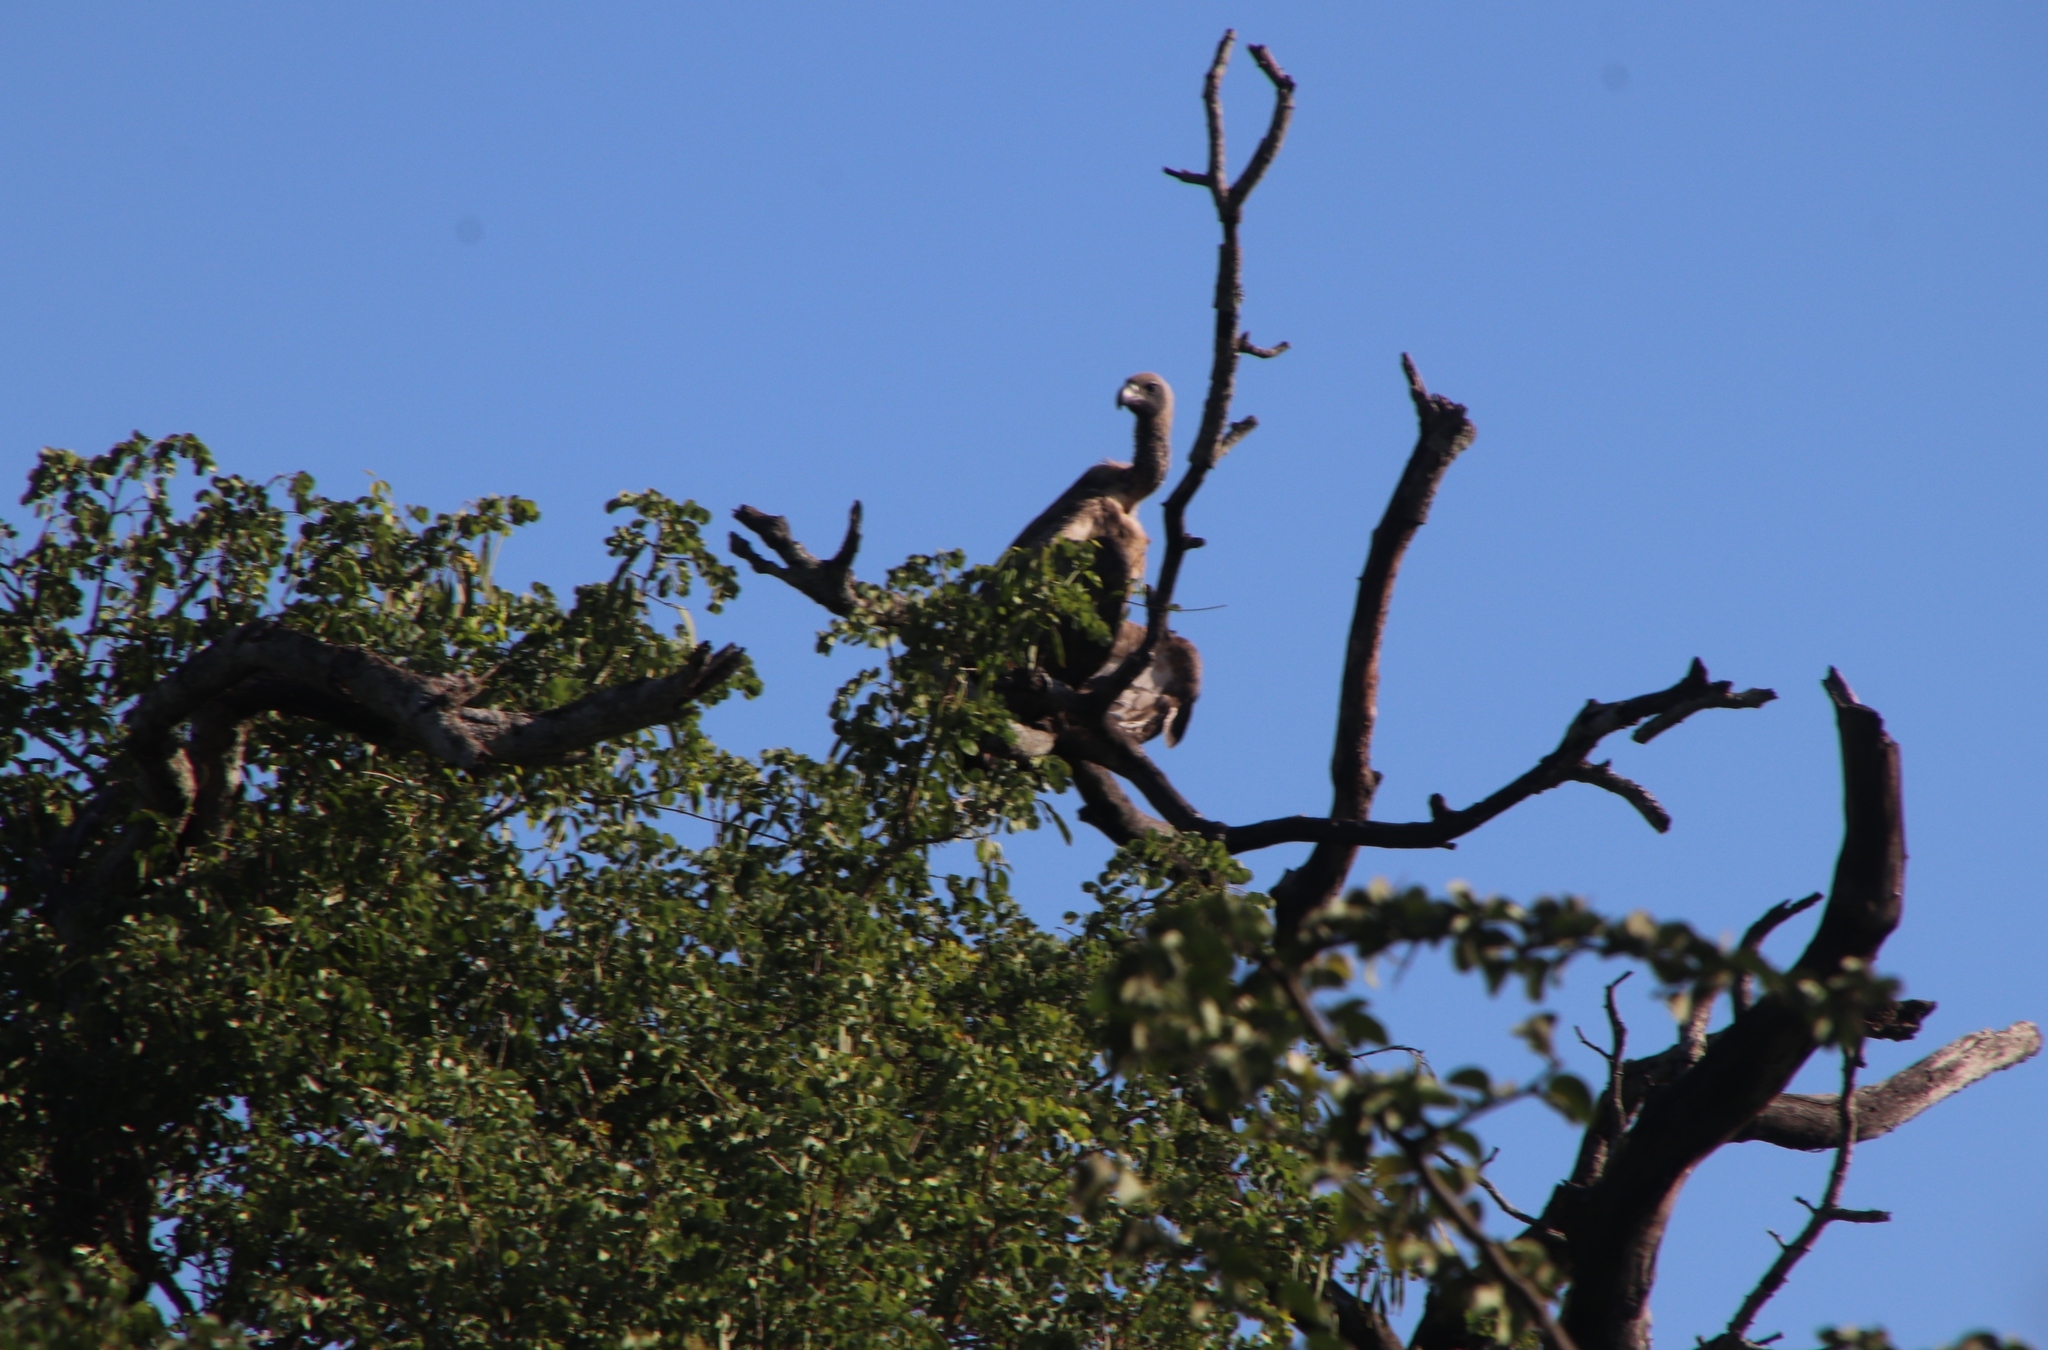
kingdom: Animalia
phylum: Chordata
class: Aves
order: Accipitriformes
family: Accipitridae
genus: Gyps
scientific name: Gyps africanus
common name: White-backed vulture
